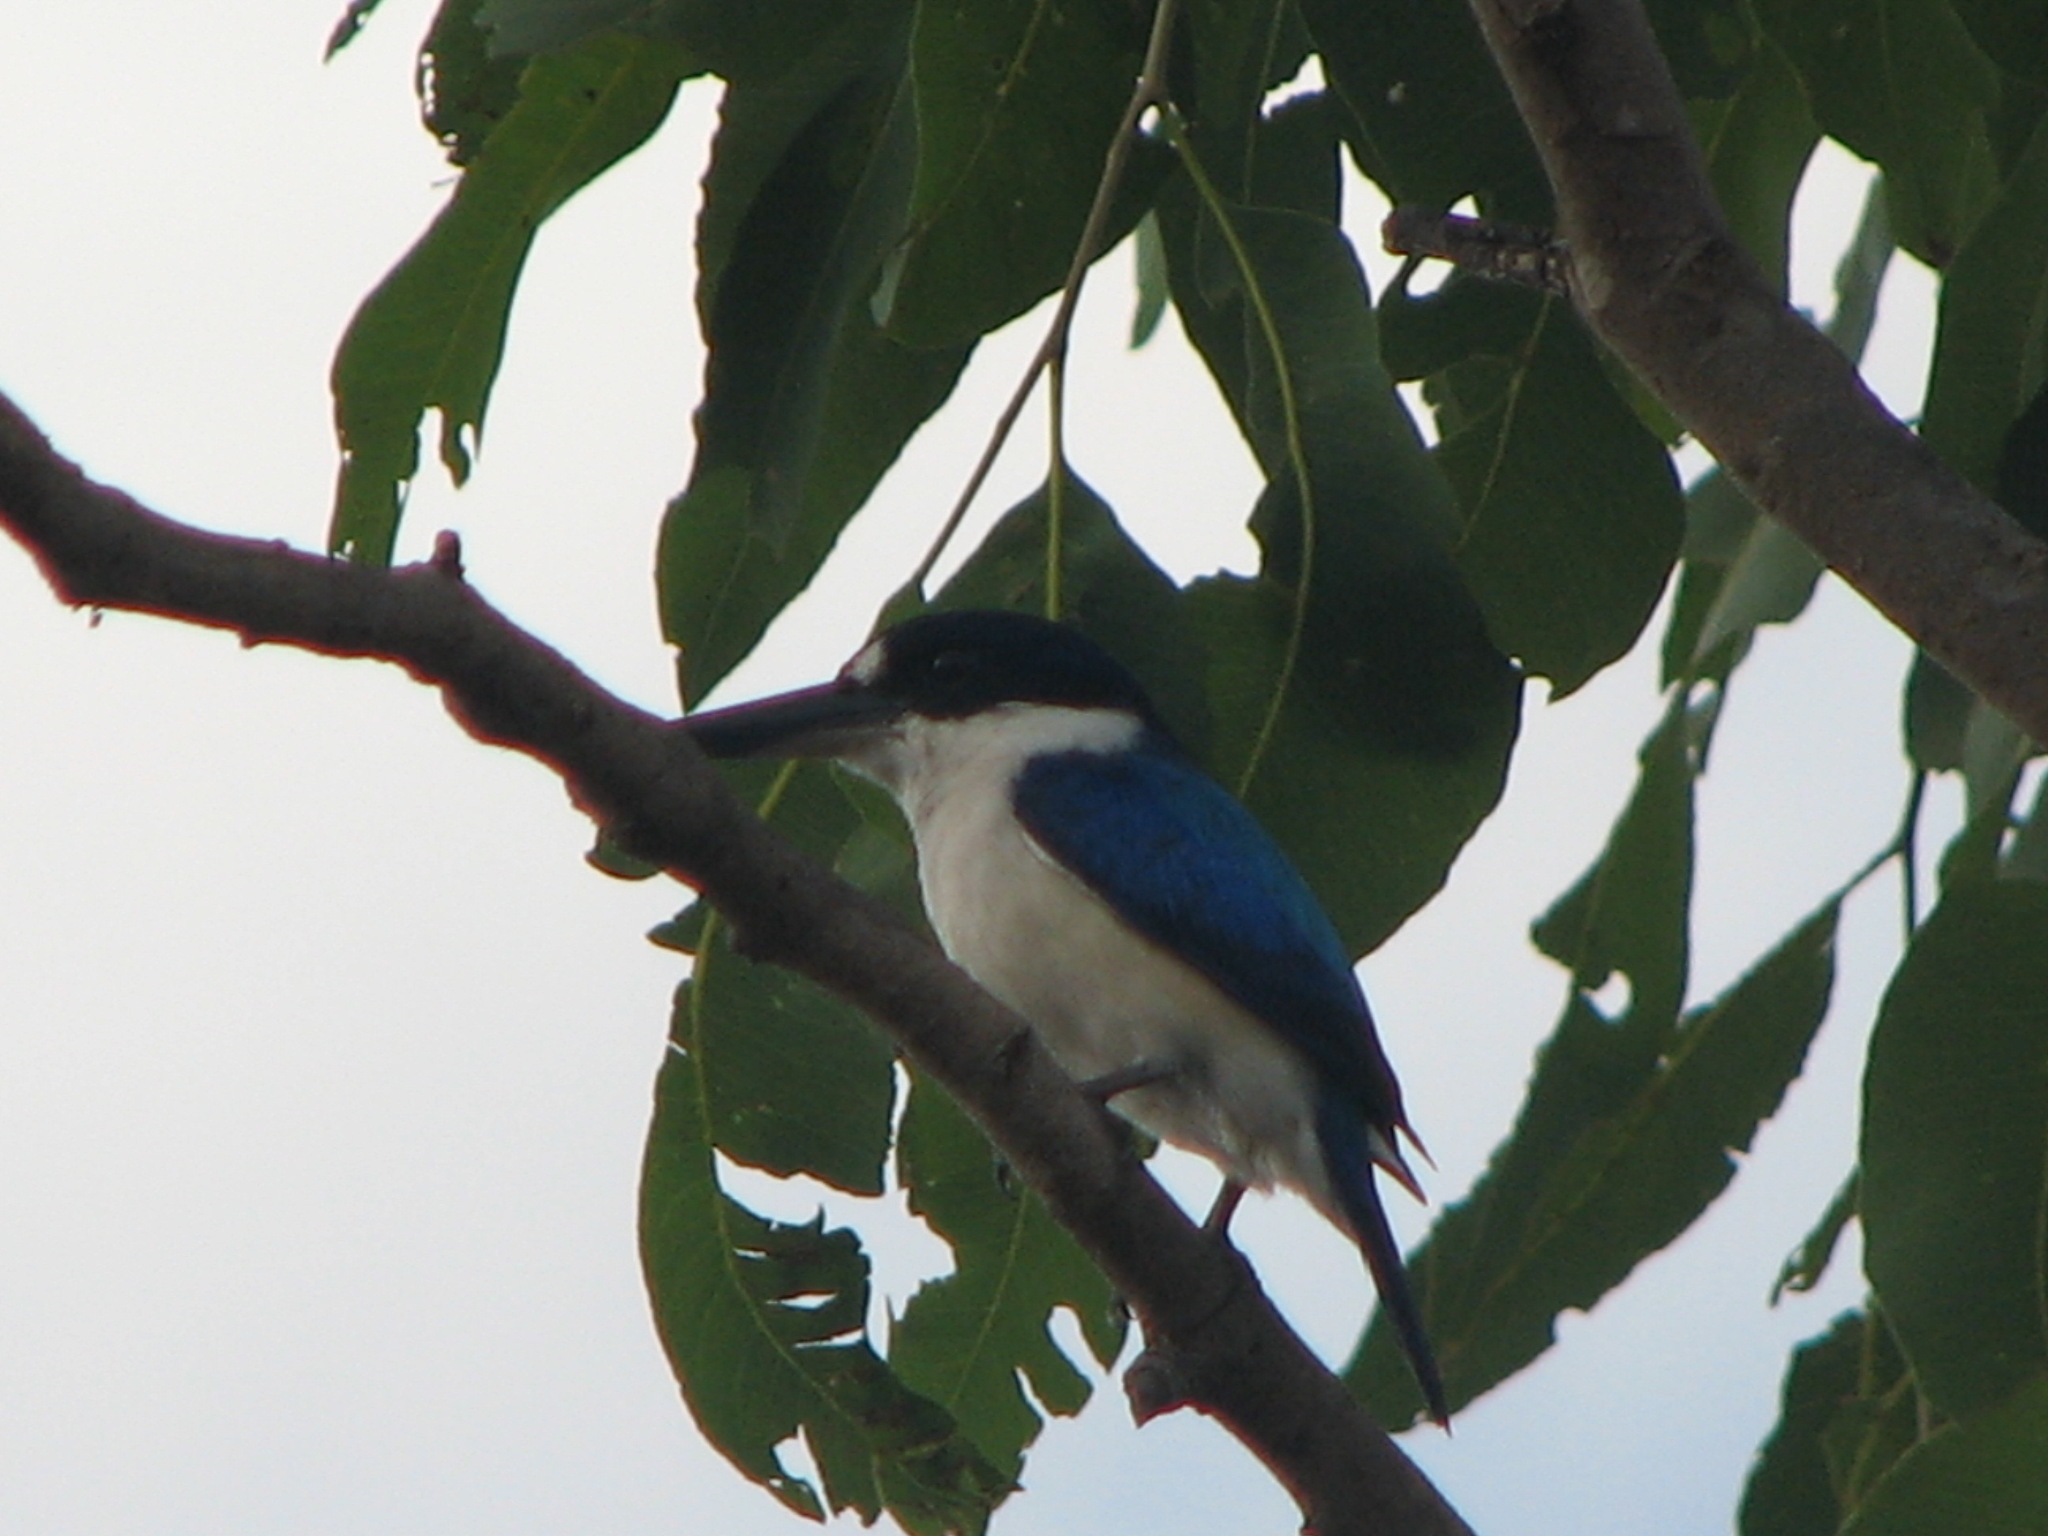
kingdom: Animalia
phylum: Chordata
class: Aves
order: Coraciiformes
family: Alcedinidae
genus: Todiramphus
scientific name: Todiramphus macleayii
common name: Forest kingfisher
